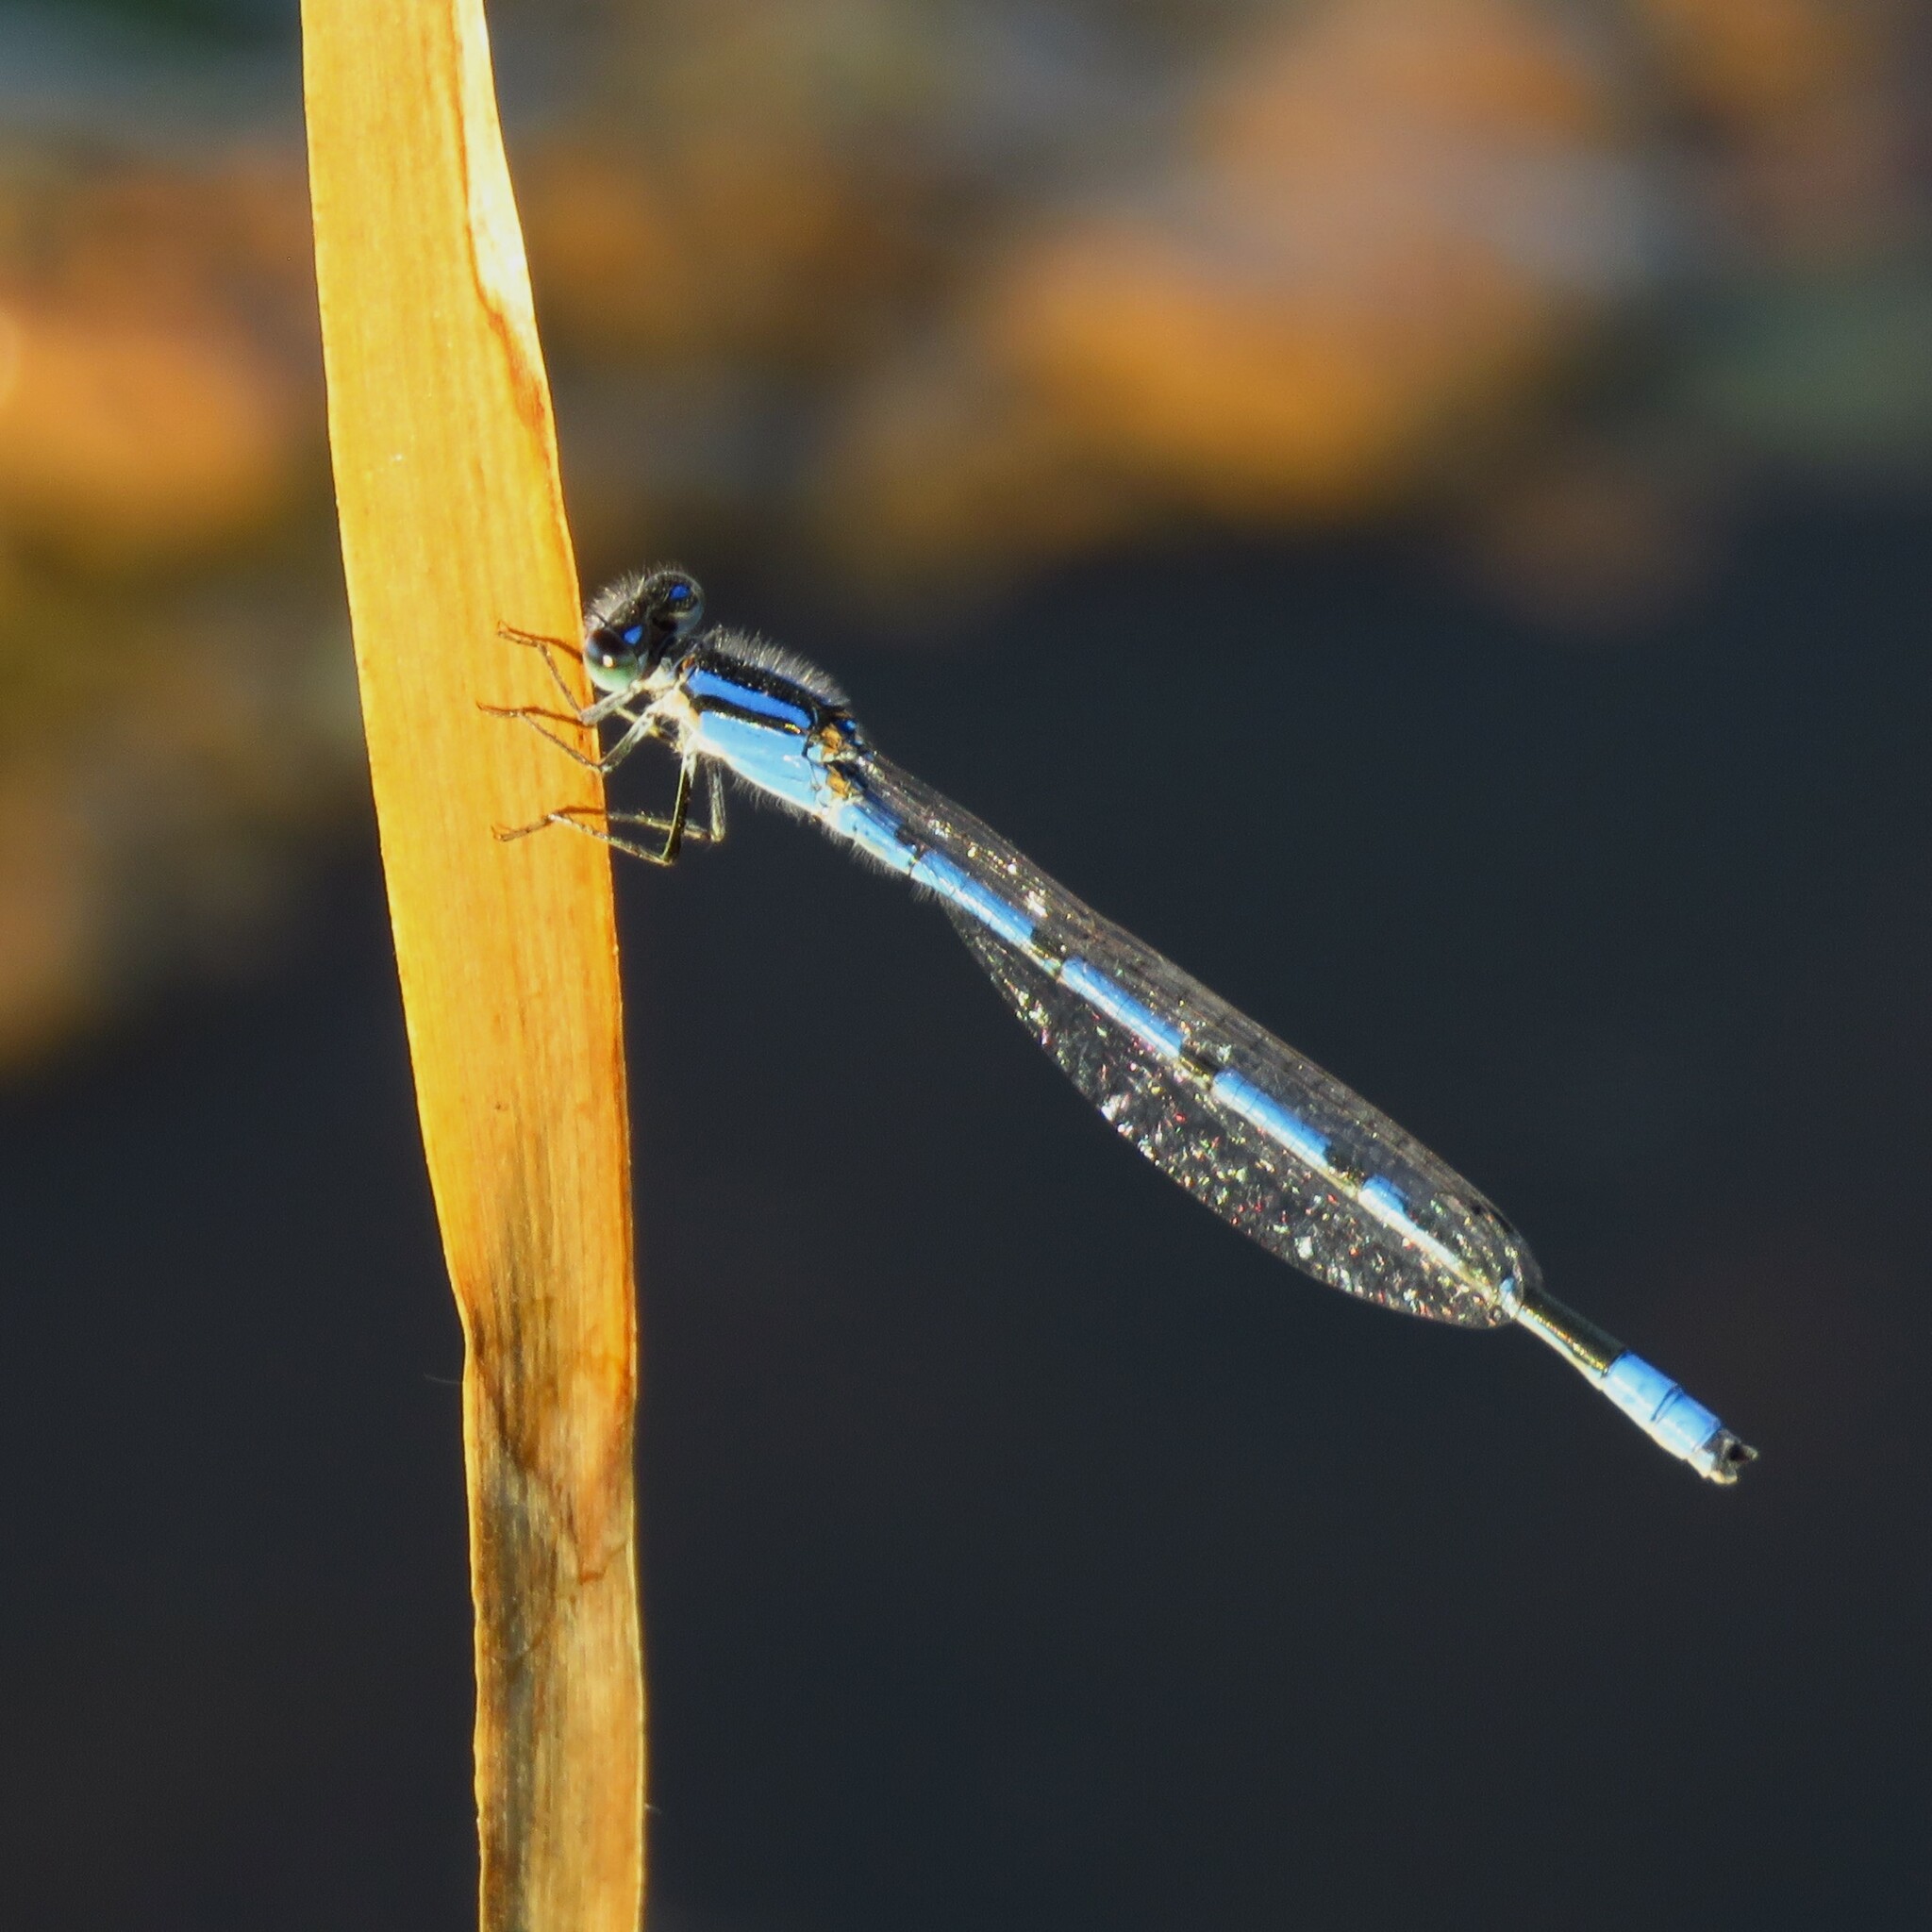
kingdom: Animalia
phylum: Arthropoda
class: Insecta
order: Odonata
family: Coenagrionidae
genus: Enallagma
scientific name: Enallagma civile
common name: Damselfly
